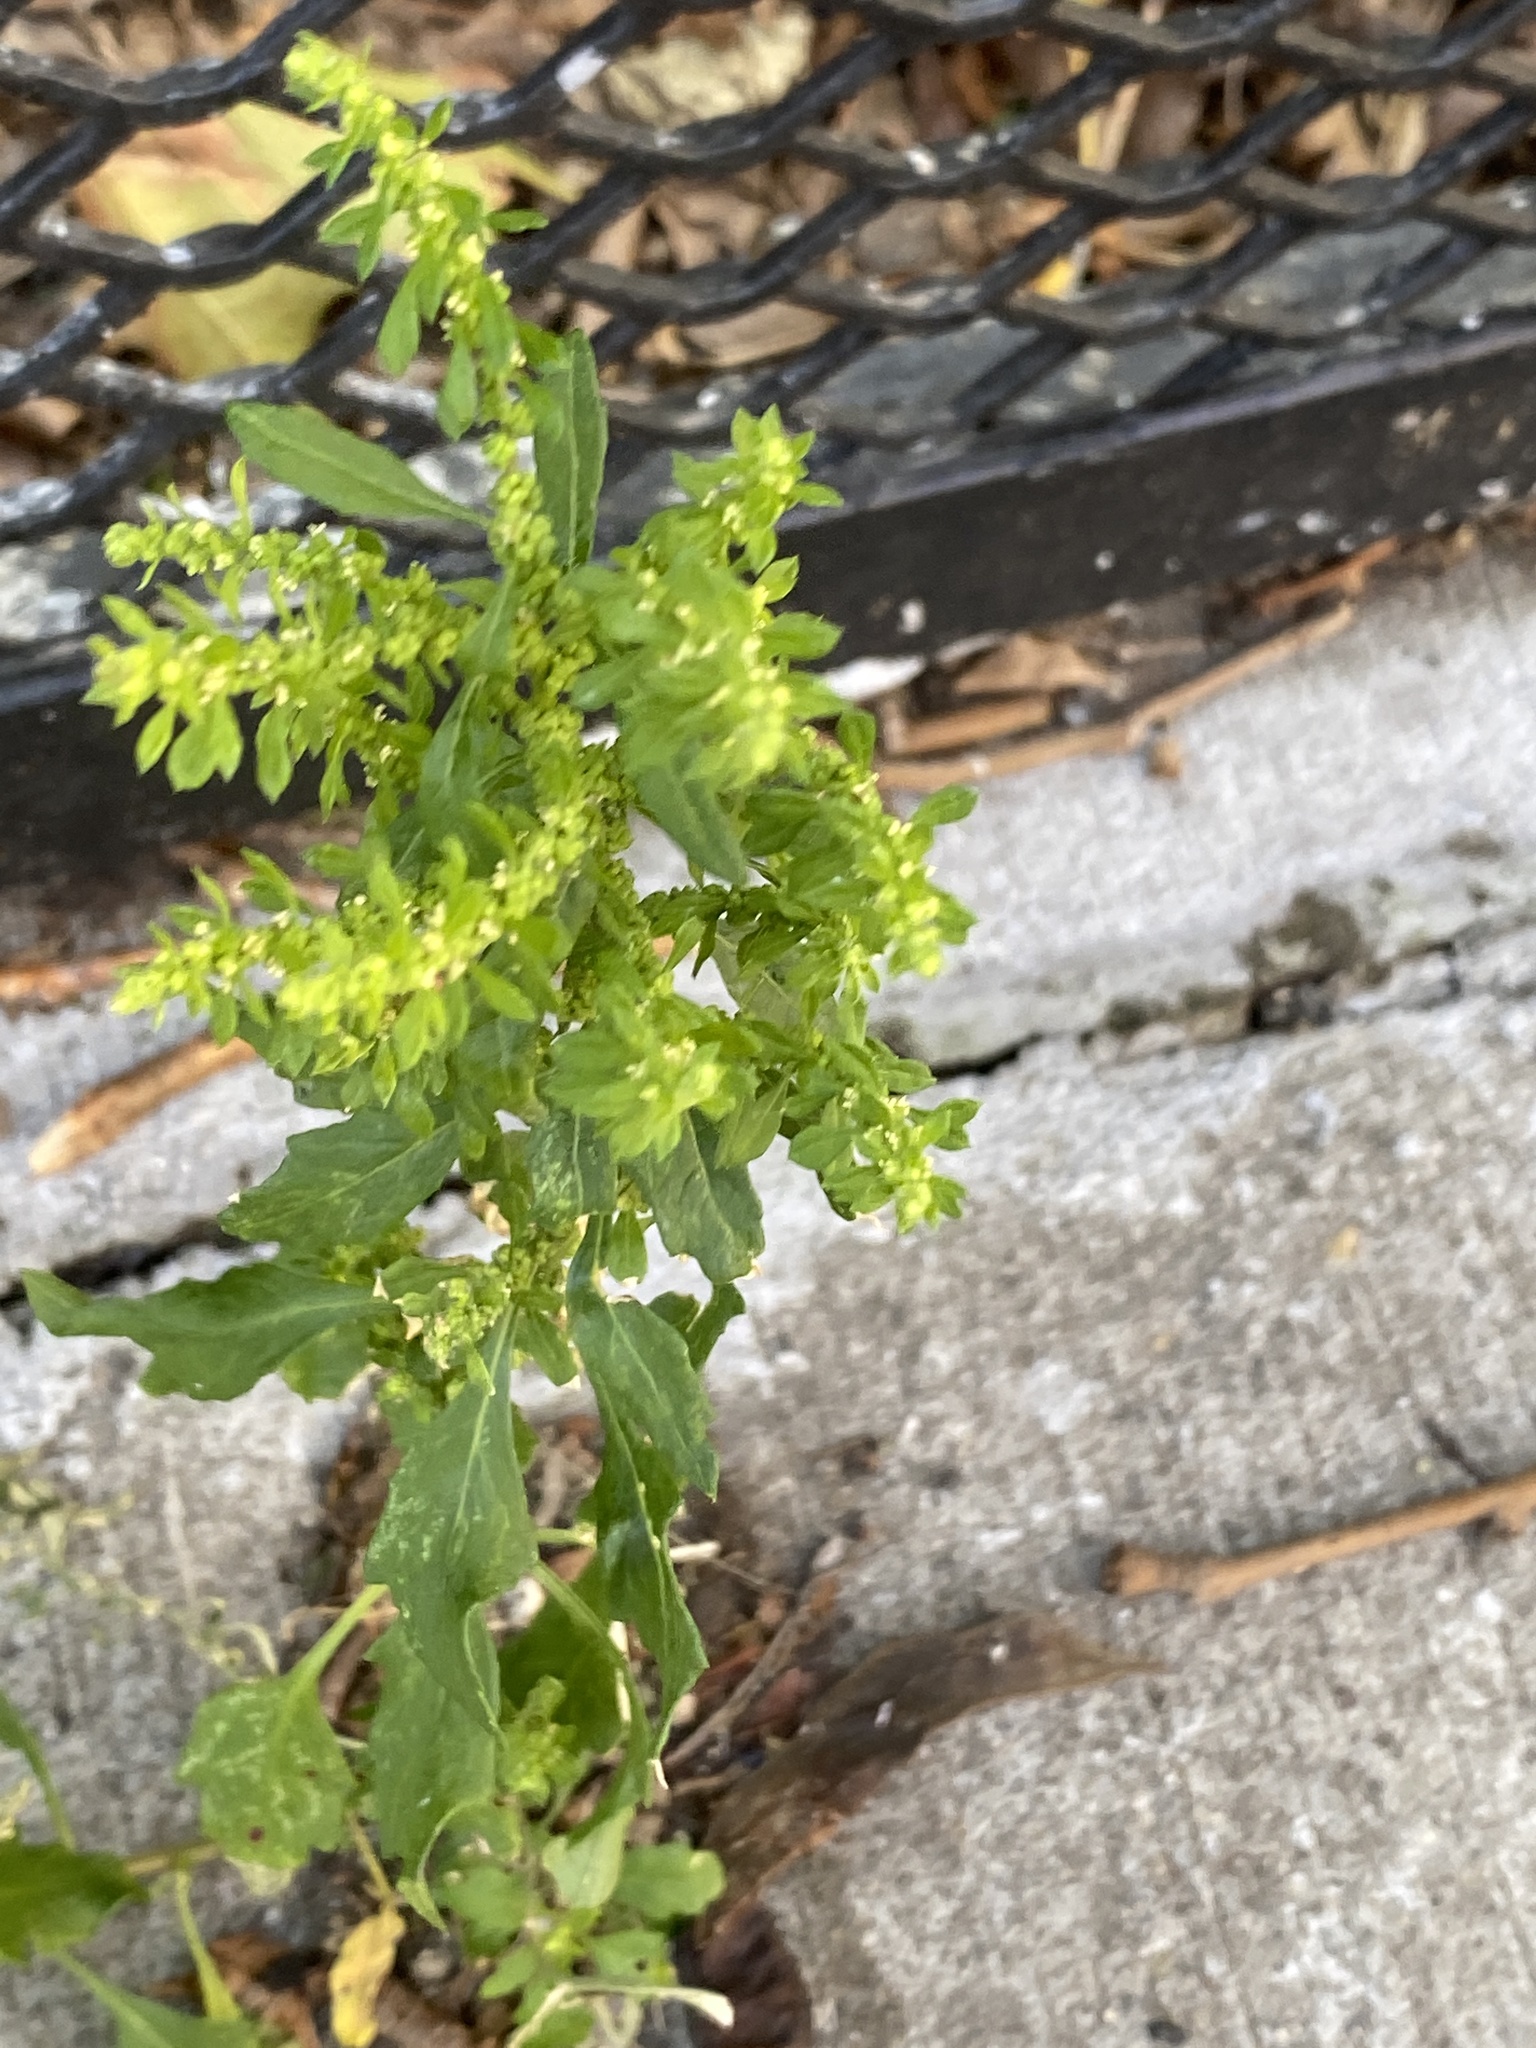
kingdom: Plantae
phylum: Tracheophyta
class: Magnoliopsida
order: Caryophyllales
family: Amaranthaceae
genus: Dysphania
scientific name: Dysphania ambrosioides
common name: Wormseed
